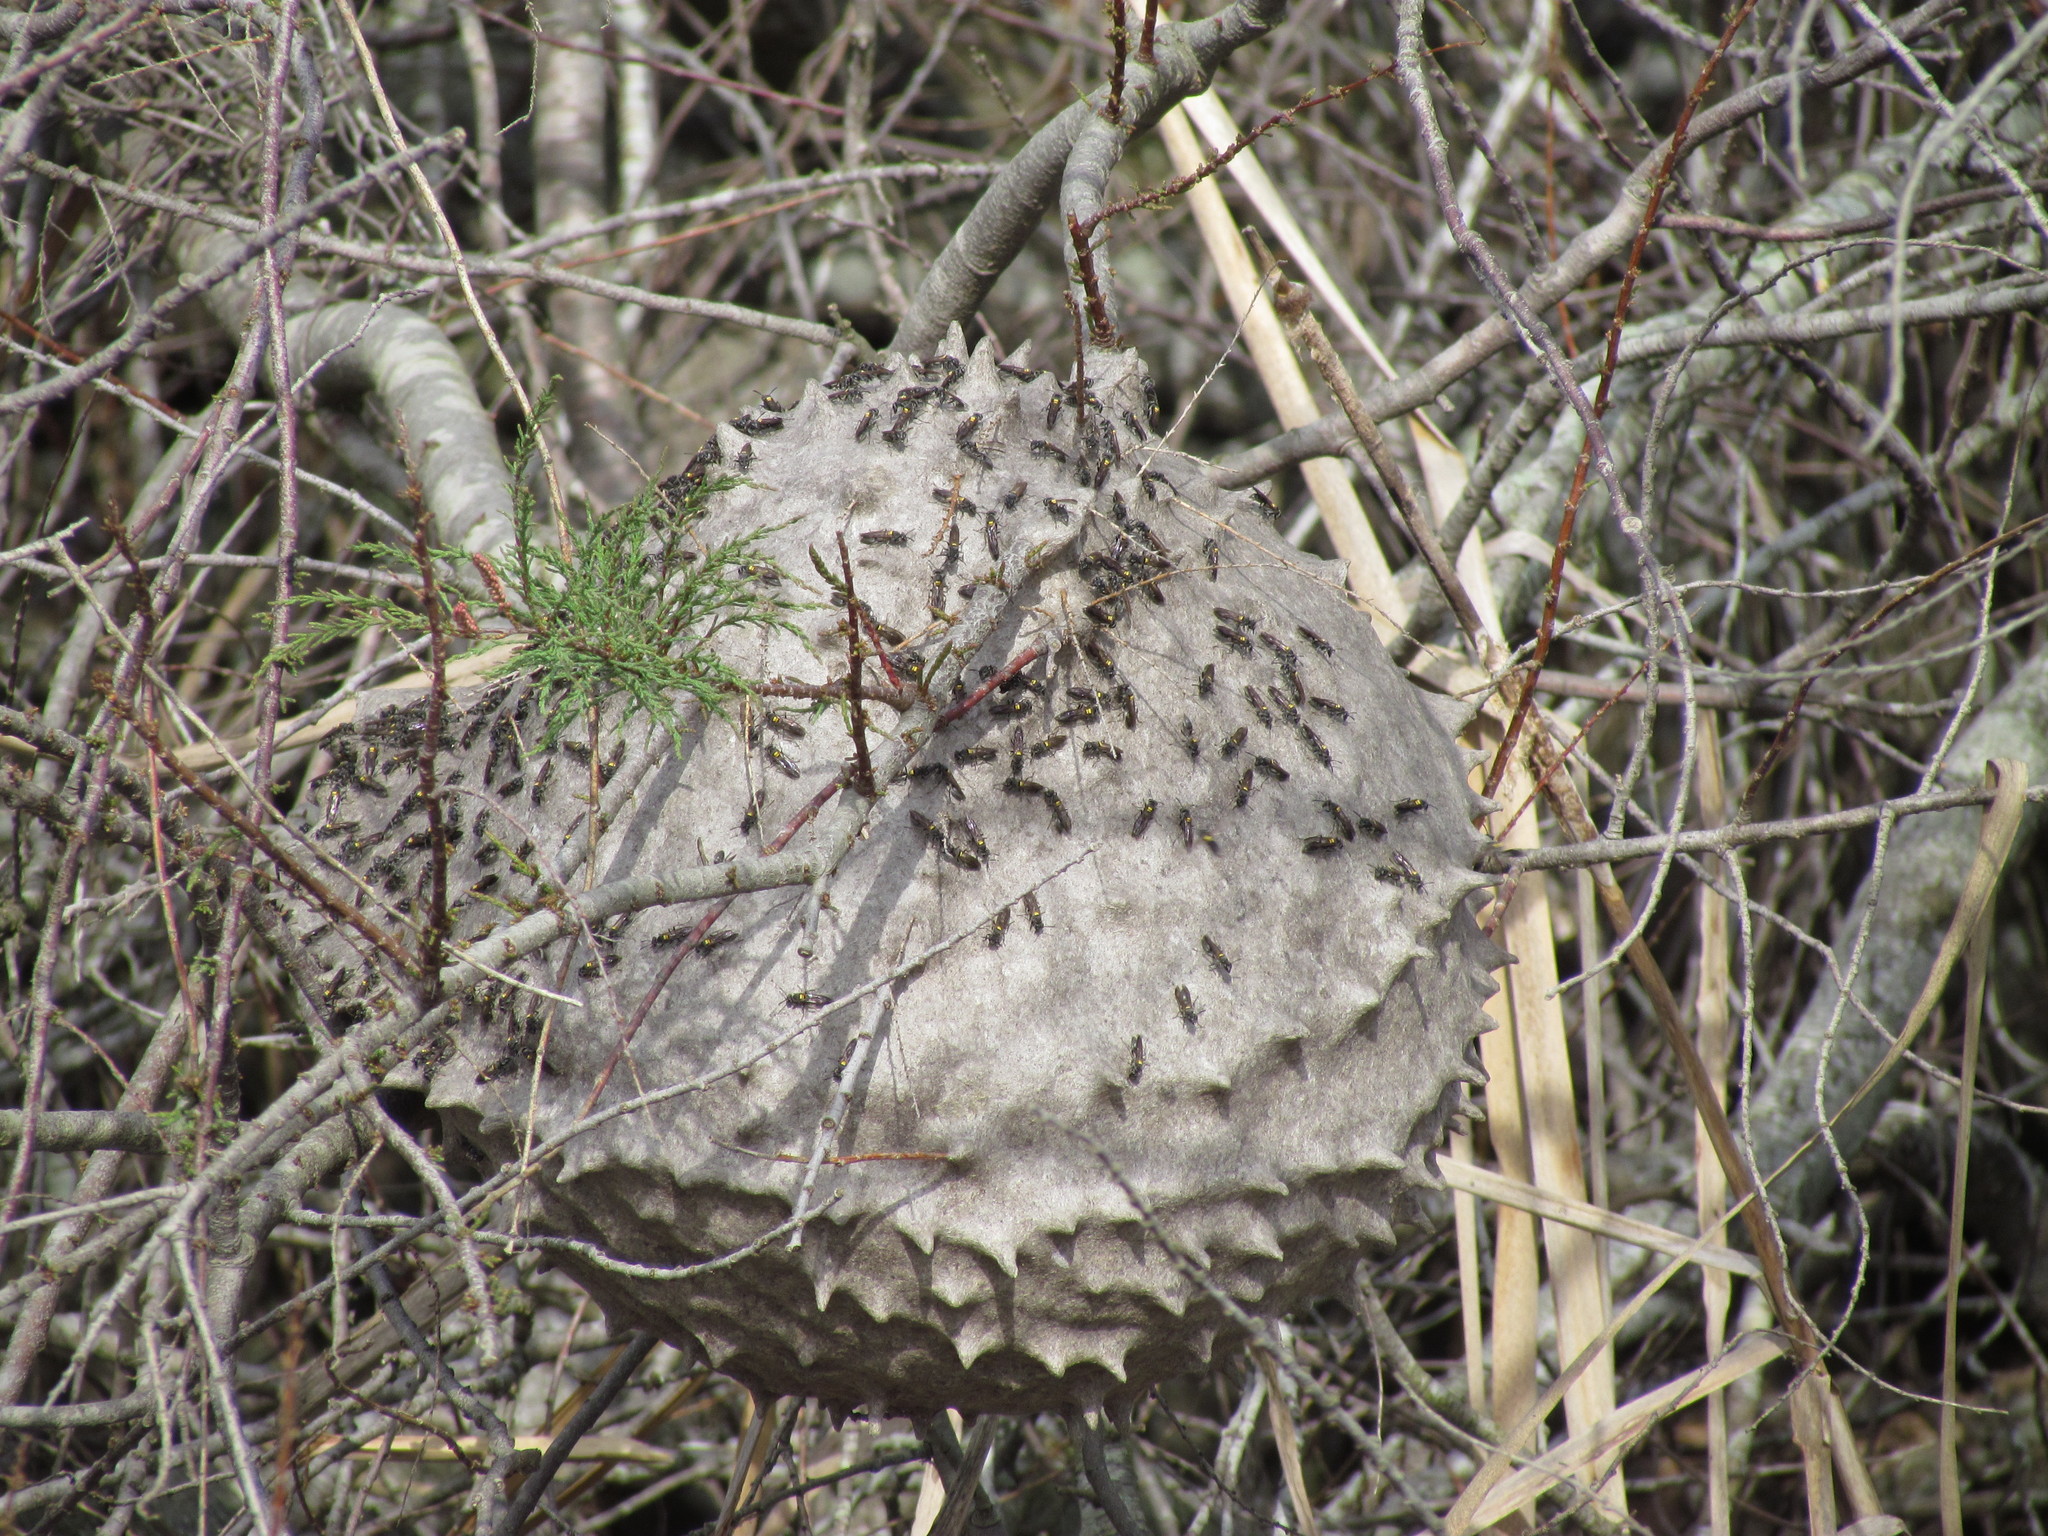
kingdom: Animalia
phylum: Arthropoda
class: Insecta
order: Hymenoptera
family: Eumenidae
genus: Polybia
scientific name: Polybia scutellaris
